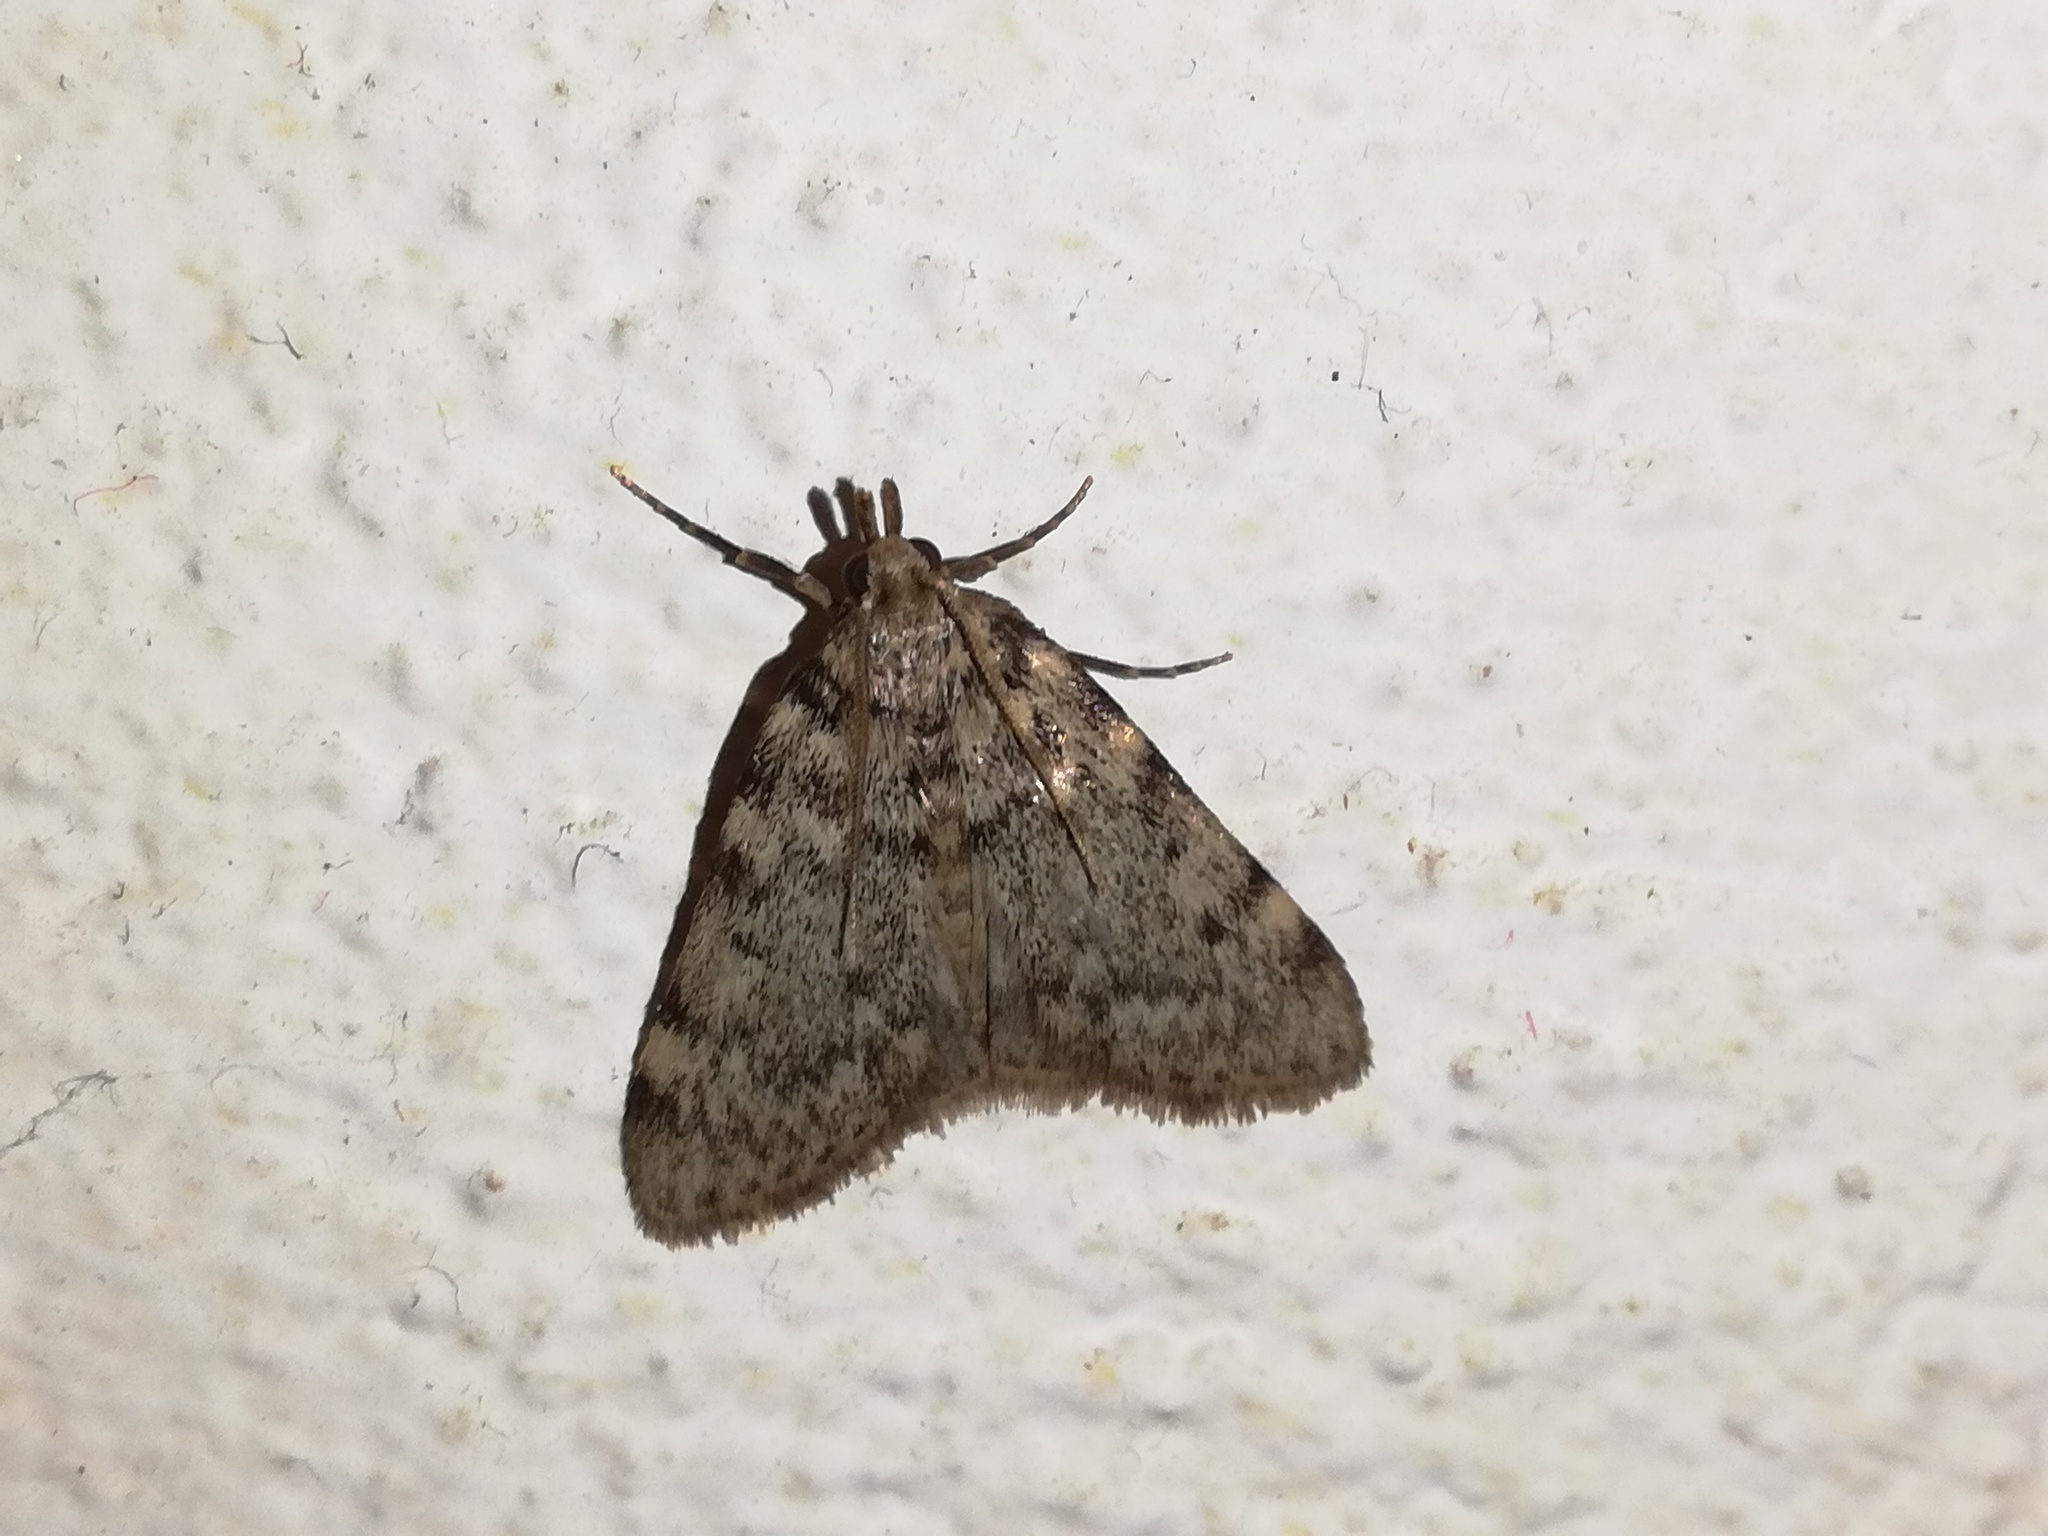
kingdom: Animalia
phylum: Arthropoda
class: Insecta
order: Lepidoptera
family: Pyralidae
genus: Aglossa
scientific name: Aglossa pinguinalis
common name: Large tabby
